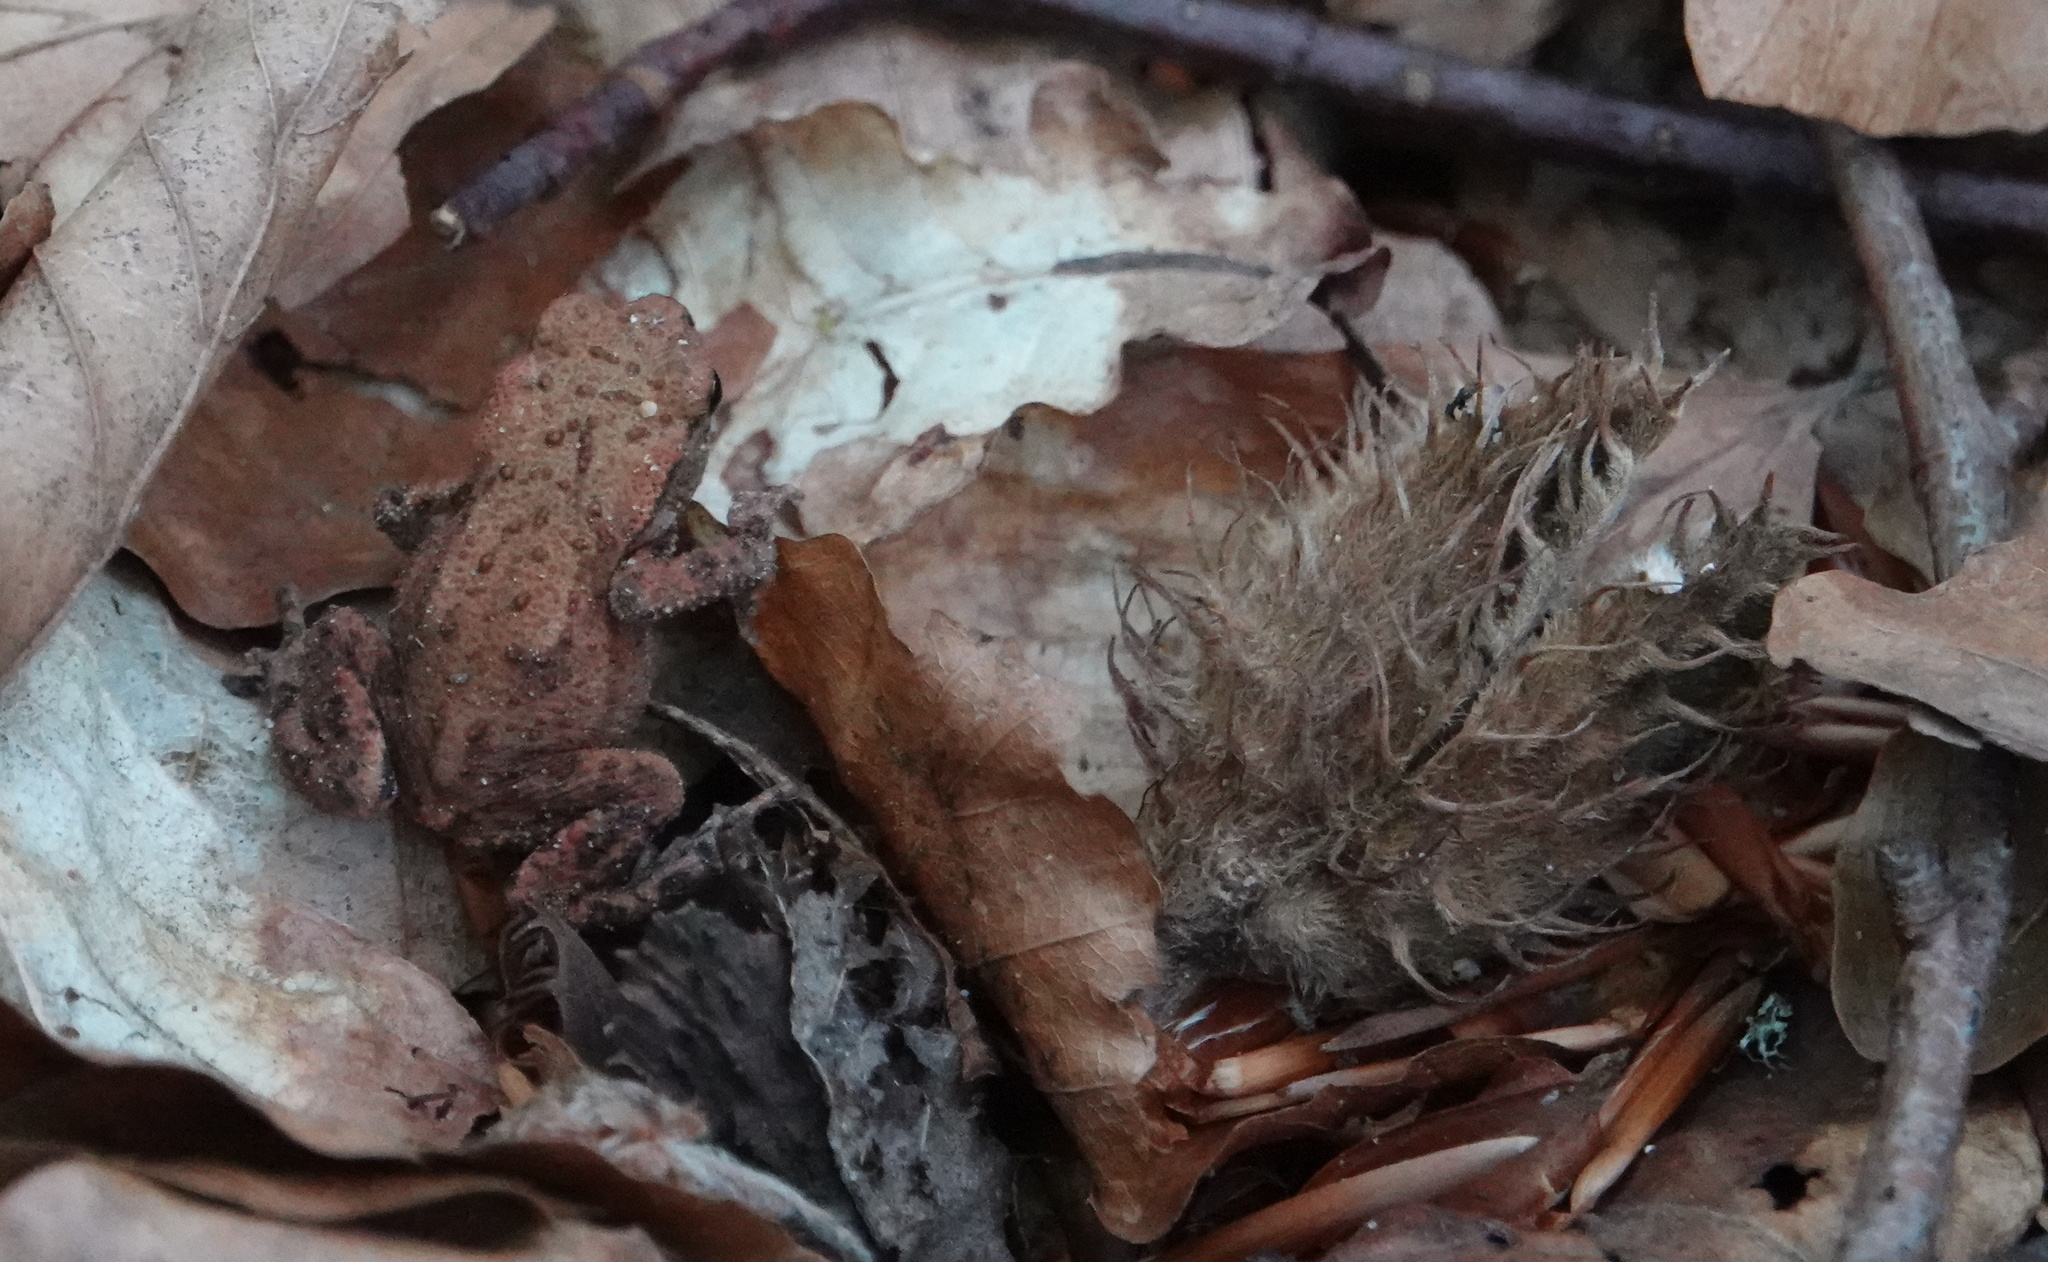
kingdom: Animalia
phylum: Chordata
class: Amphibia
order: Anura
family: Bufonidae
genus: Bufo
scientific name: Bufo bufo
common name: Common toad
